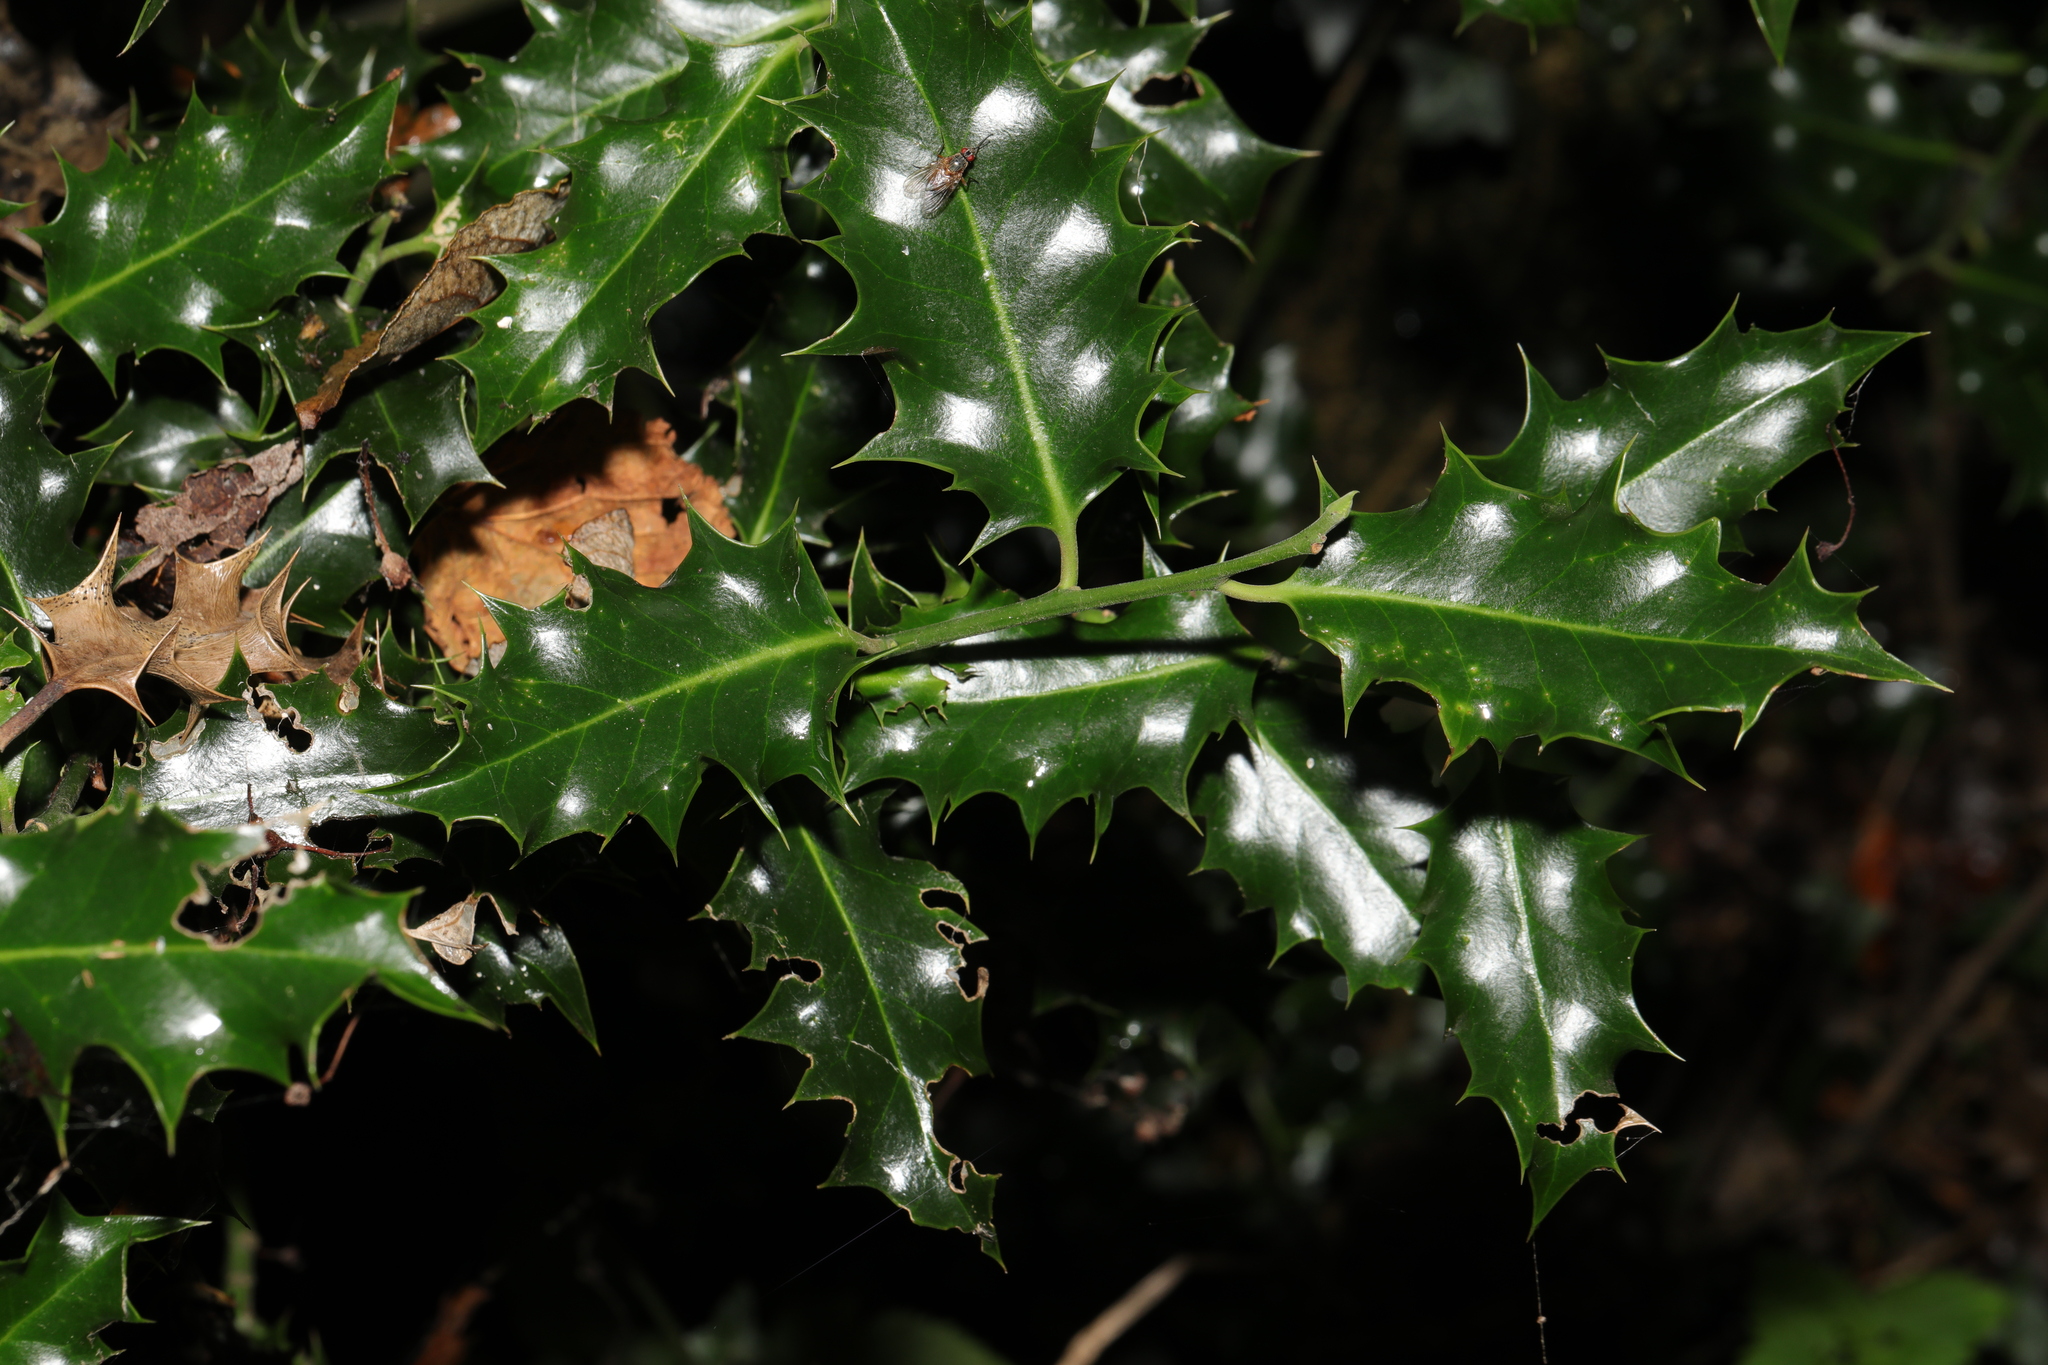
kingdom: Plantae
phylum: Tracheophyta
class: Magnoliopsida
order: Aquifoliales
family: Aquifoliaceae
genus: Ilex
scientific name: Ilex aquifolium
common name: English holly
